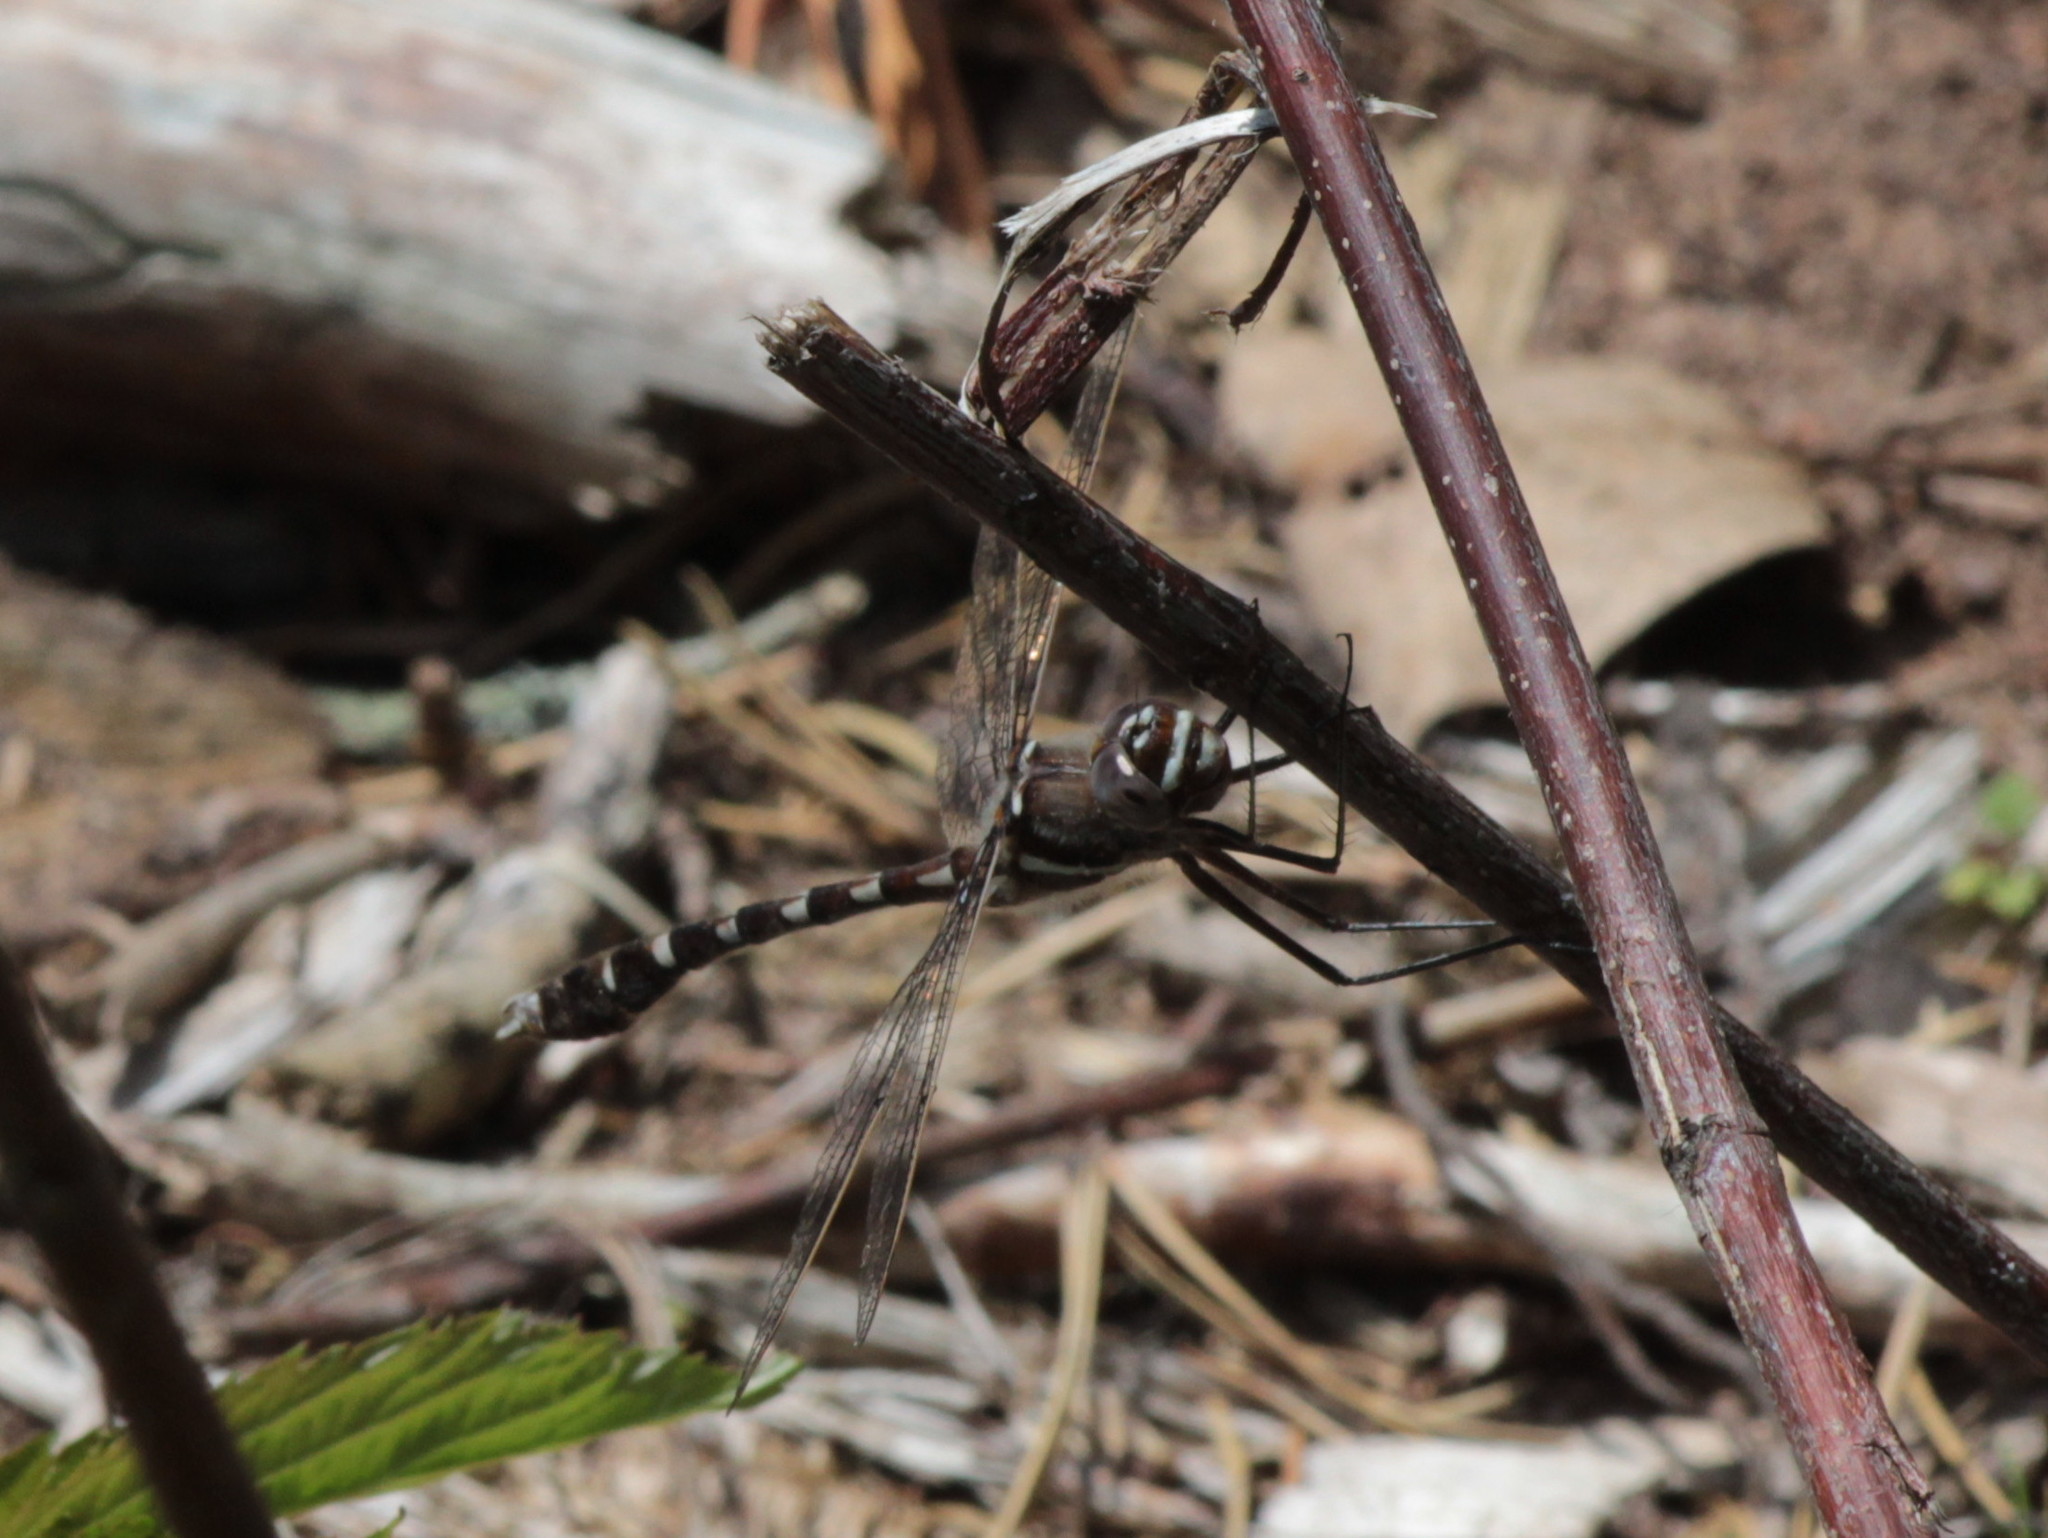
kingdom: Animalia
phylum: Arthropoda
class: Insecta
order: Odonata
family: Macromiidae
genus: Didymops
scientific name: Didymops transversa
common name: Stream cruiser
